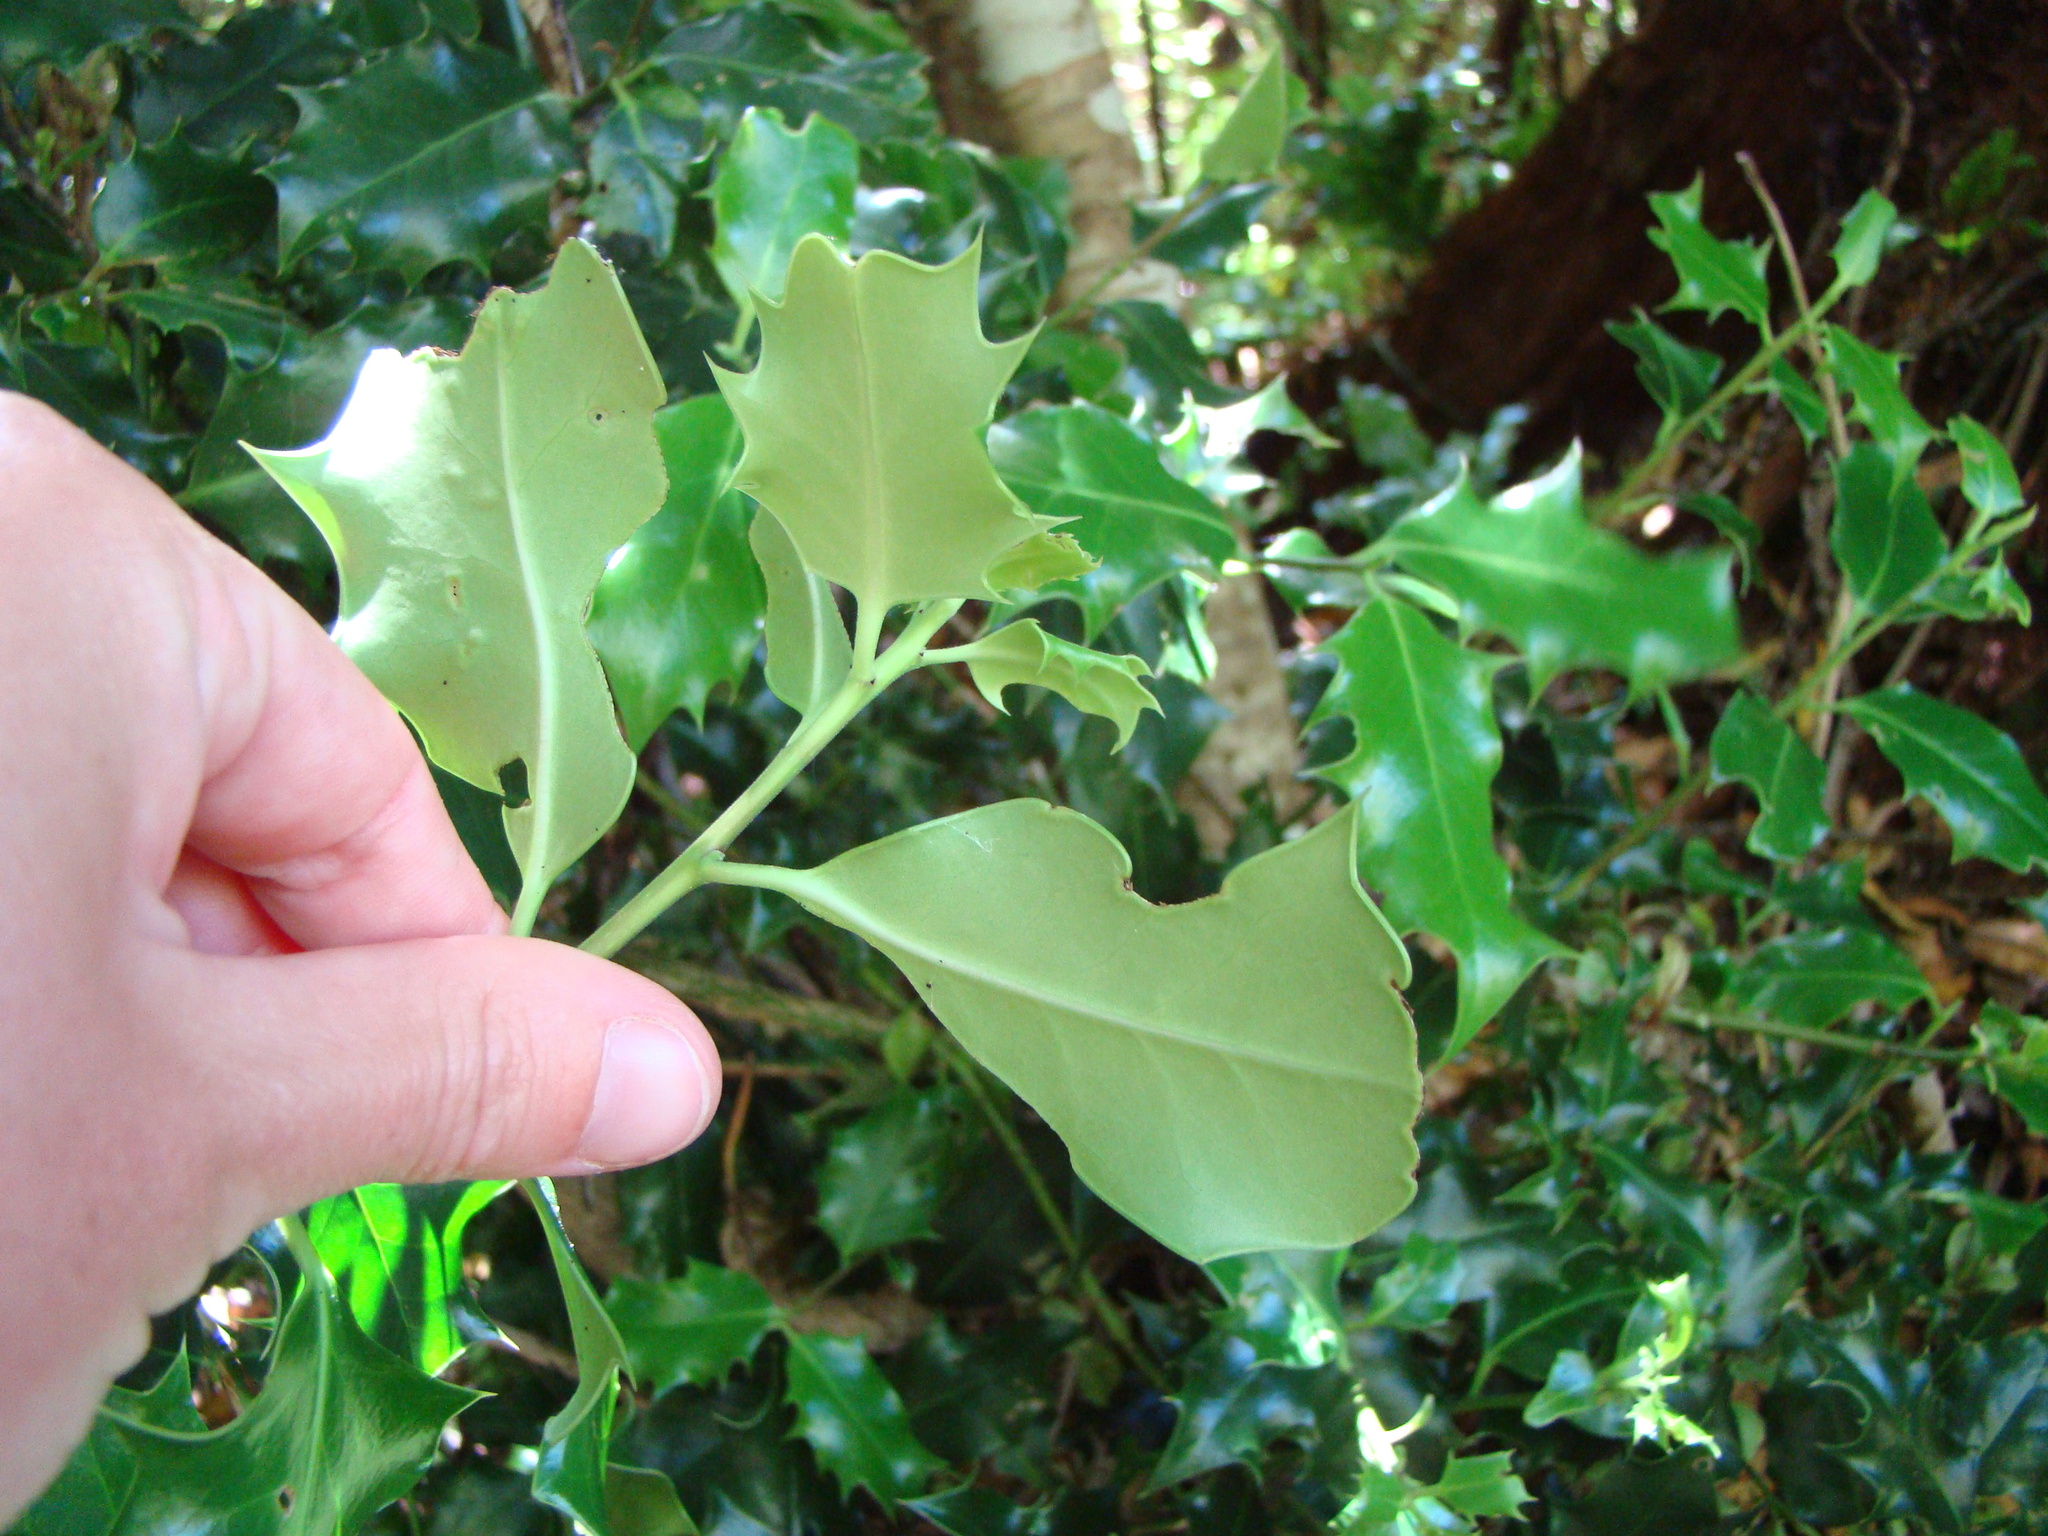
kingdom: Plantae
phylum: Tracheophyta
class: Magnoliopsida
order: Aquifoliales
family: Aquifoliaceae
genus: Ilex
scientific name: Ilex aquifolium
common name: English holly
